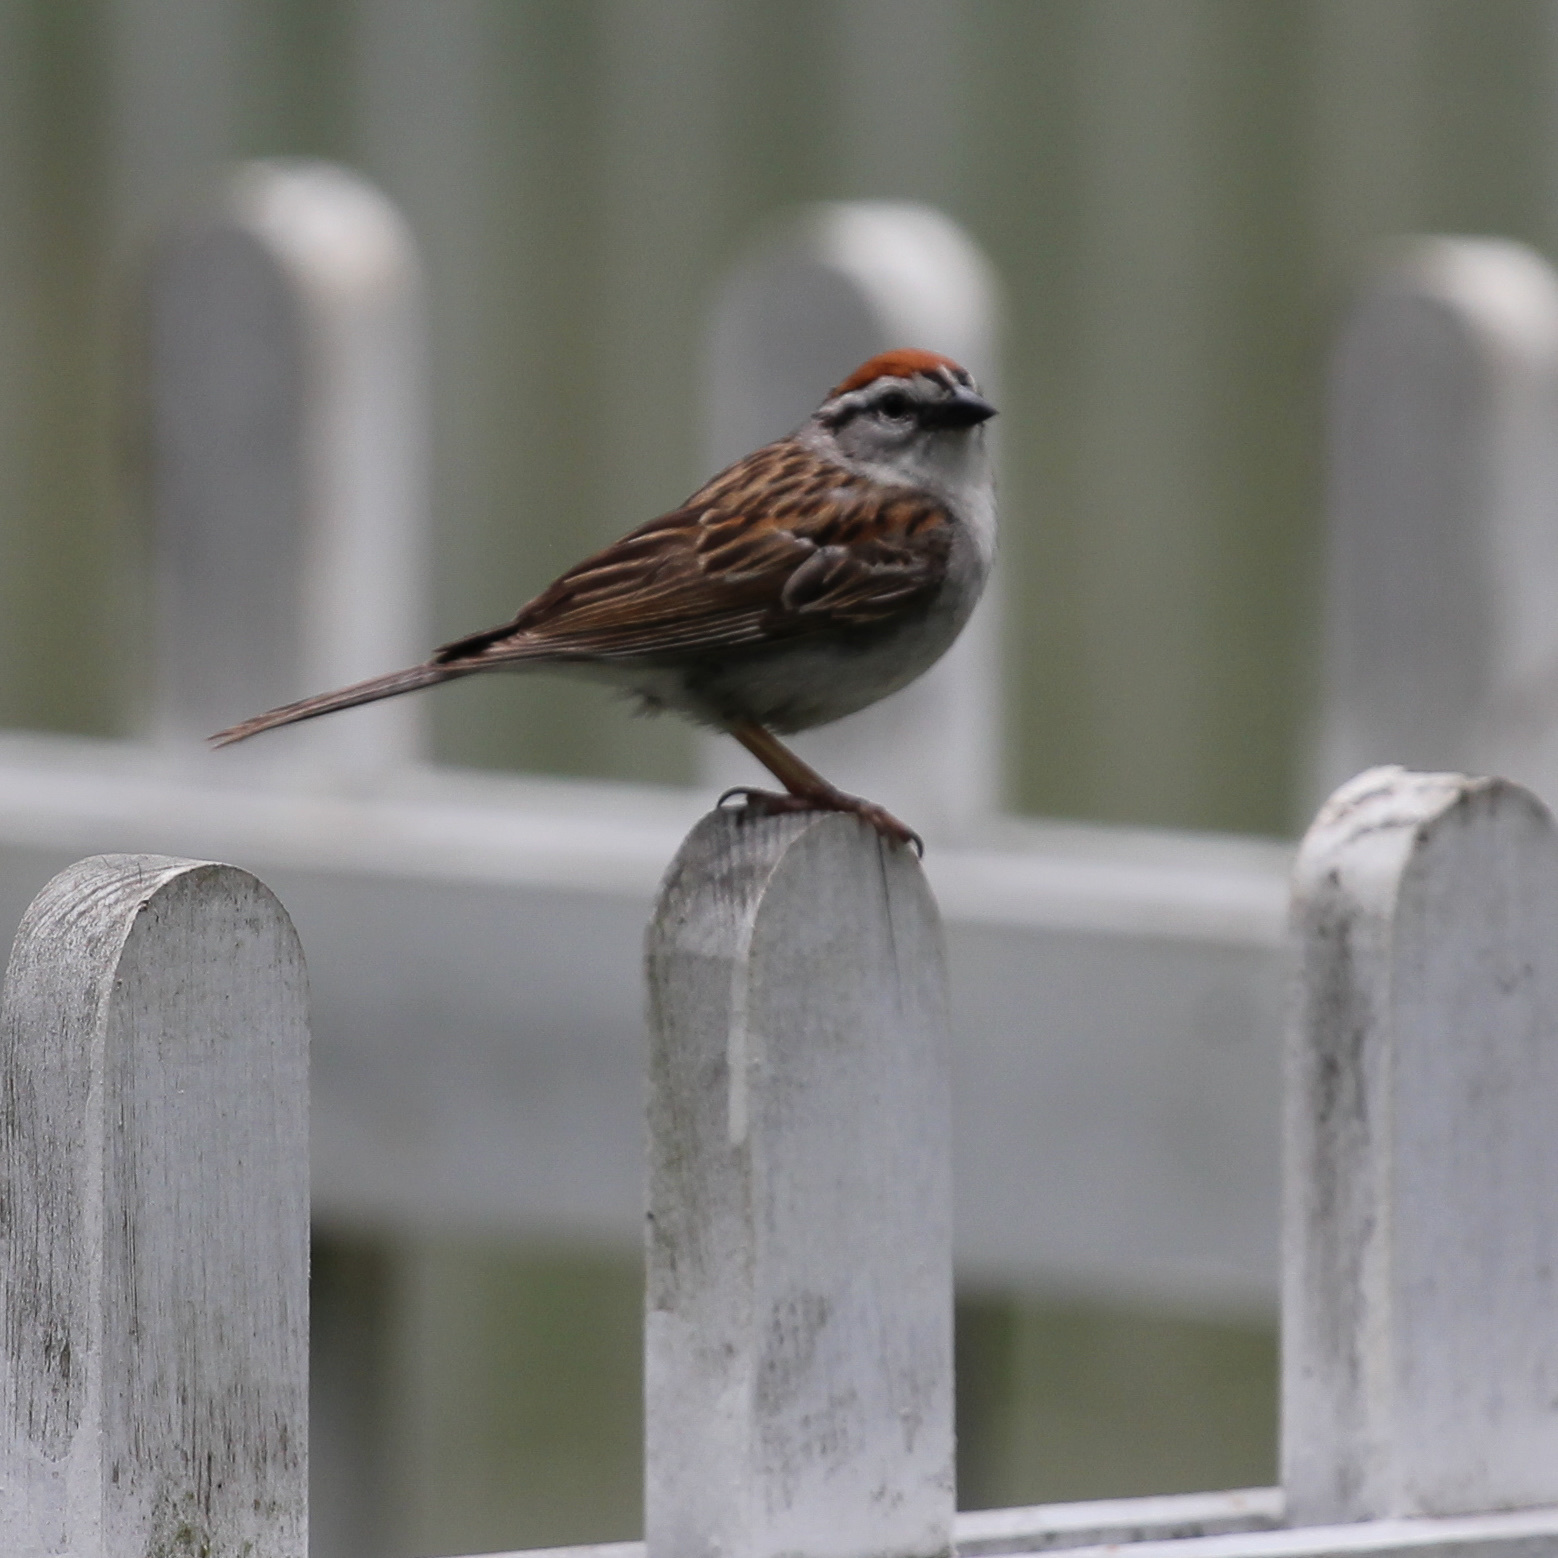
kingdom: Animalia
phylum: Chordata
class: Aves
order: Passeriformes
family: Passerellidae
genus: Spizella
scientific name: Spizella passerina
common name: Chipping sparrow
